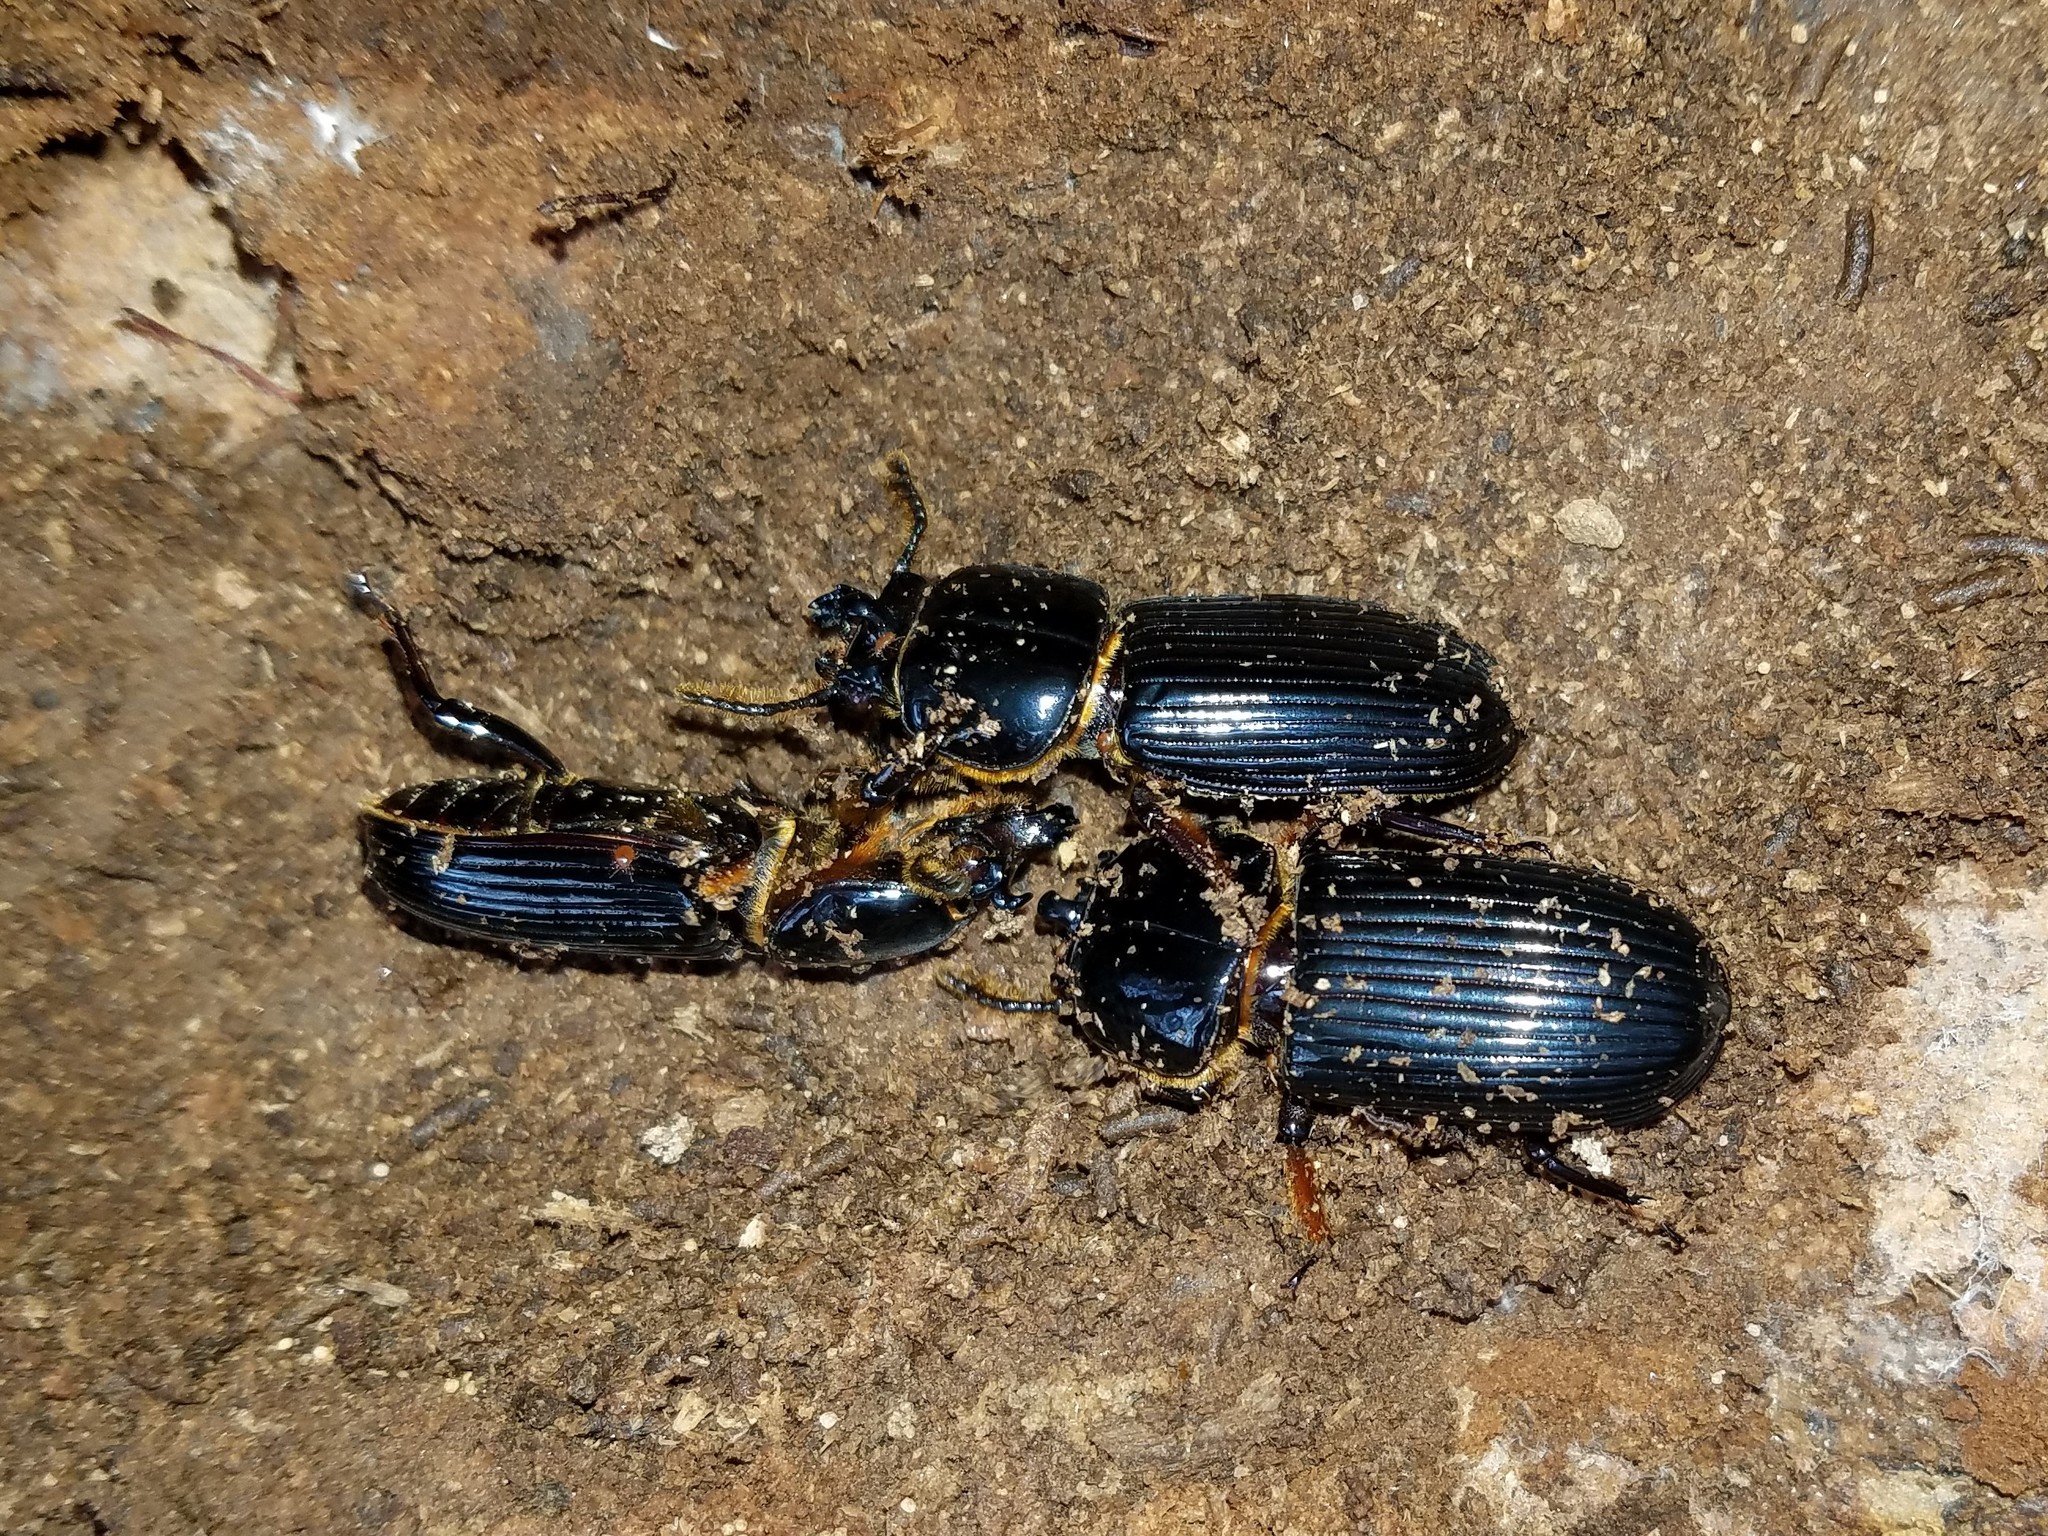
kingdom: Animalia
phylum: Arthropoda
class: Insecta
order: Coleoptera
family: Passalidae
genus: Odontotaenius
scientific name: Odontotaenius disjunctus
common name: Patent leather beetle
